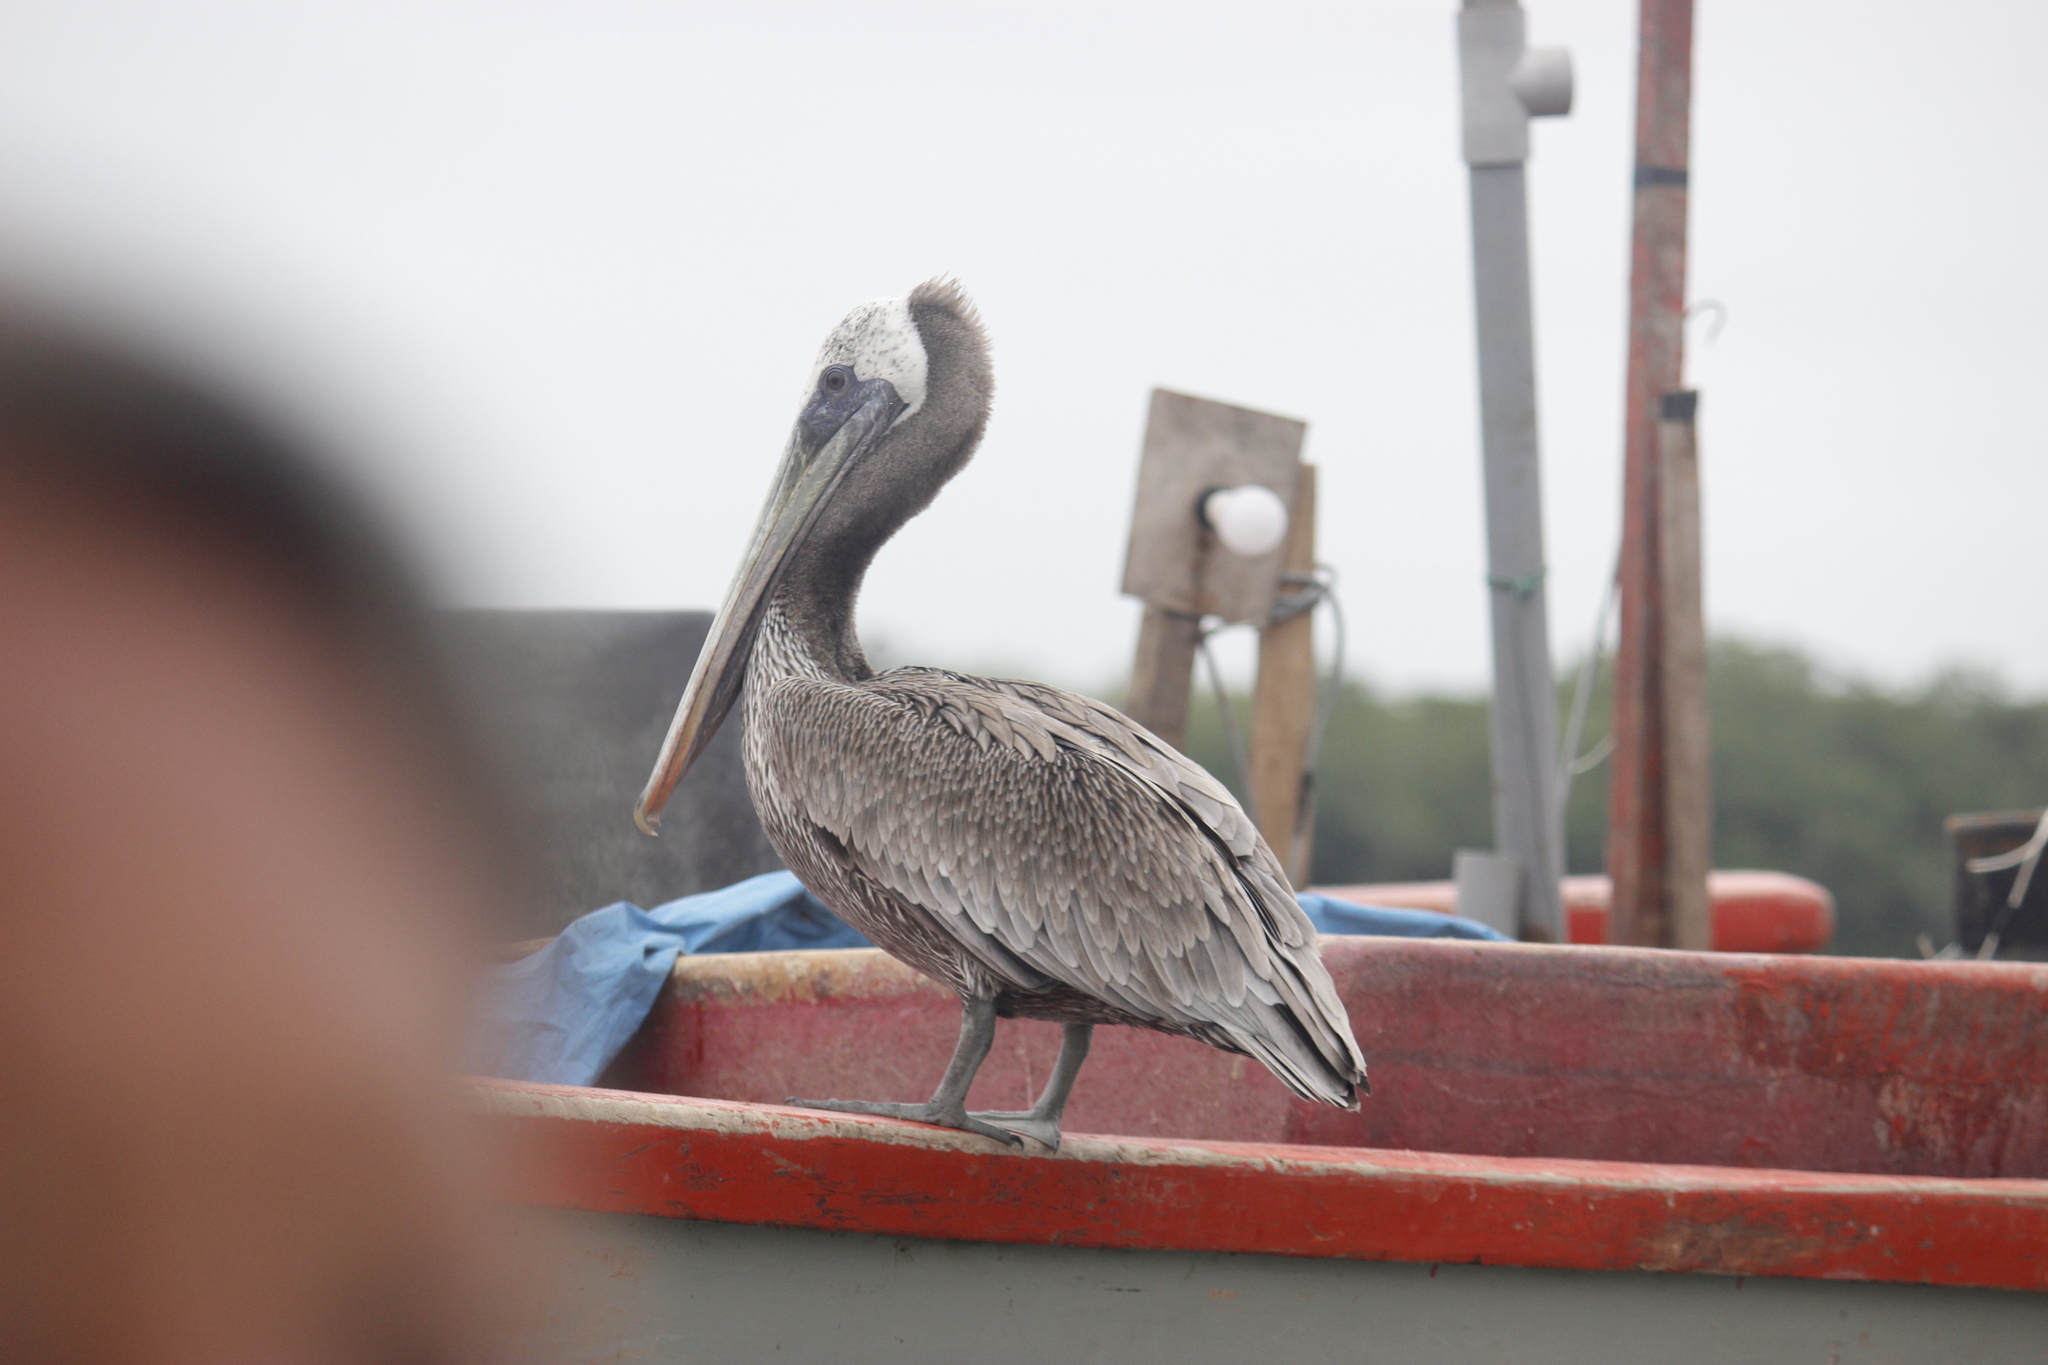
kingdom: Animalia
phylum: Chordata
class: Aves
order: Pelecaniformes
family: Pelecanidae
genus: Pelecanus
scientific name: Pelecanus thagus
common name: Peruvian pelican
